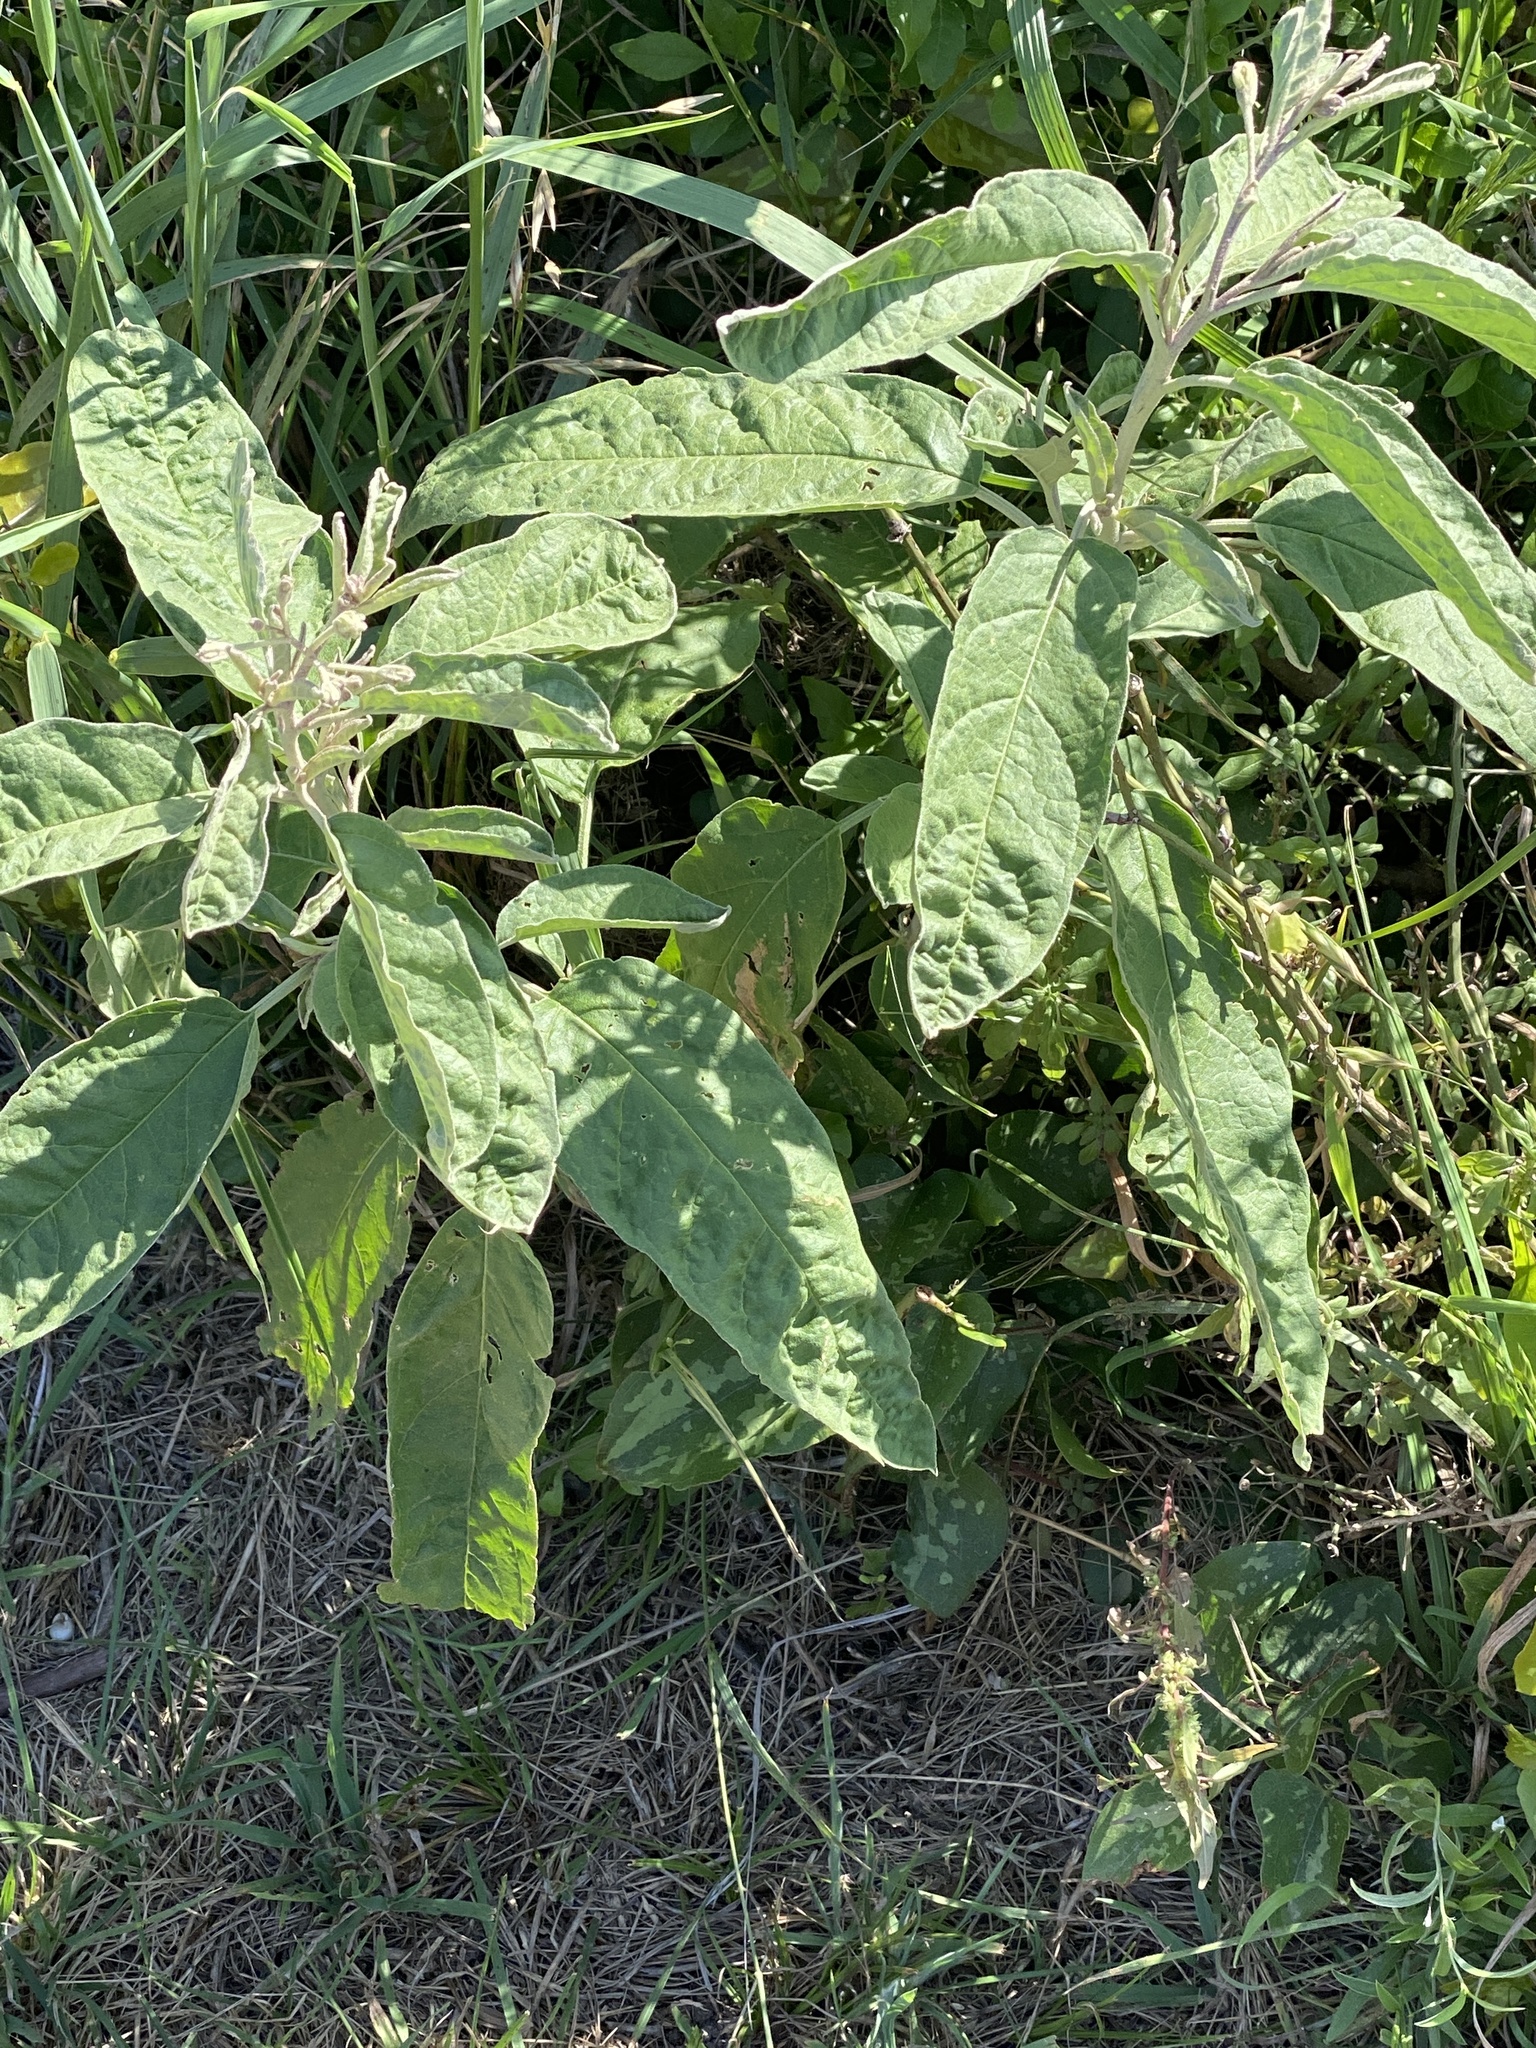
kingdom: Plantae
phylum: Tracheophyta
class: Magnoliopsida
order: Solanales
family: Solanaceae
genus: Solanum
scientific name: Solanum elaeagnifolium
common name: Silverleaf nightshade
